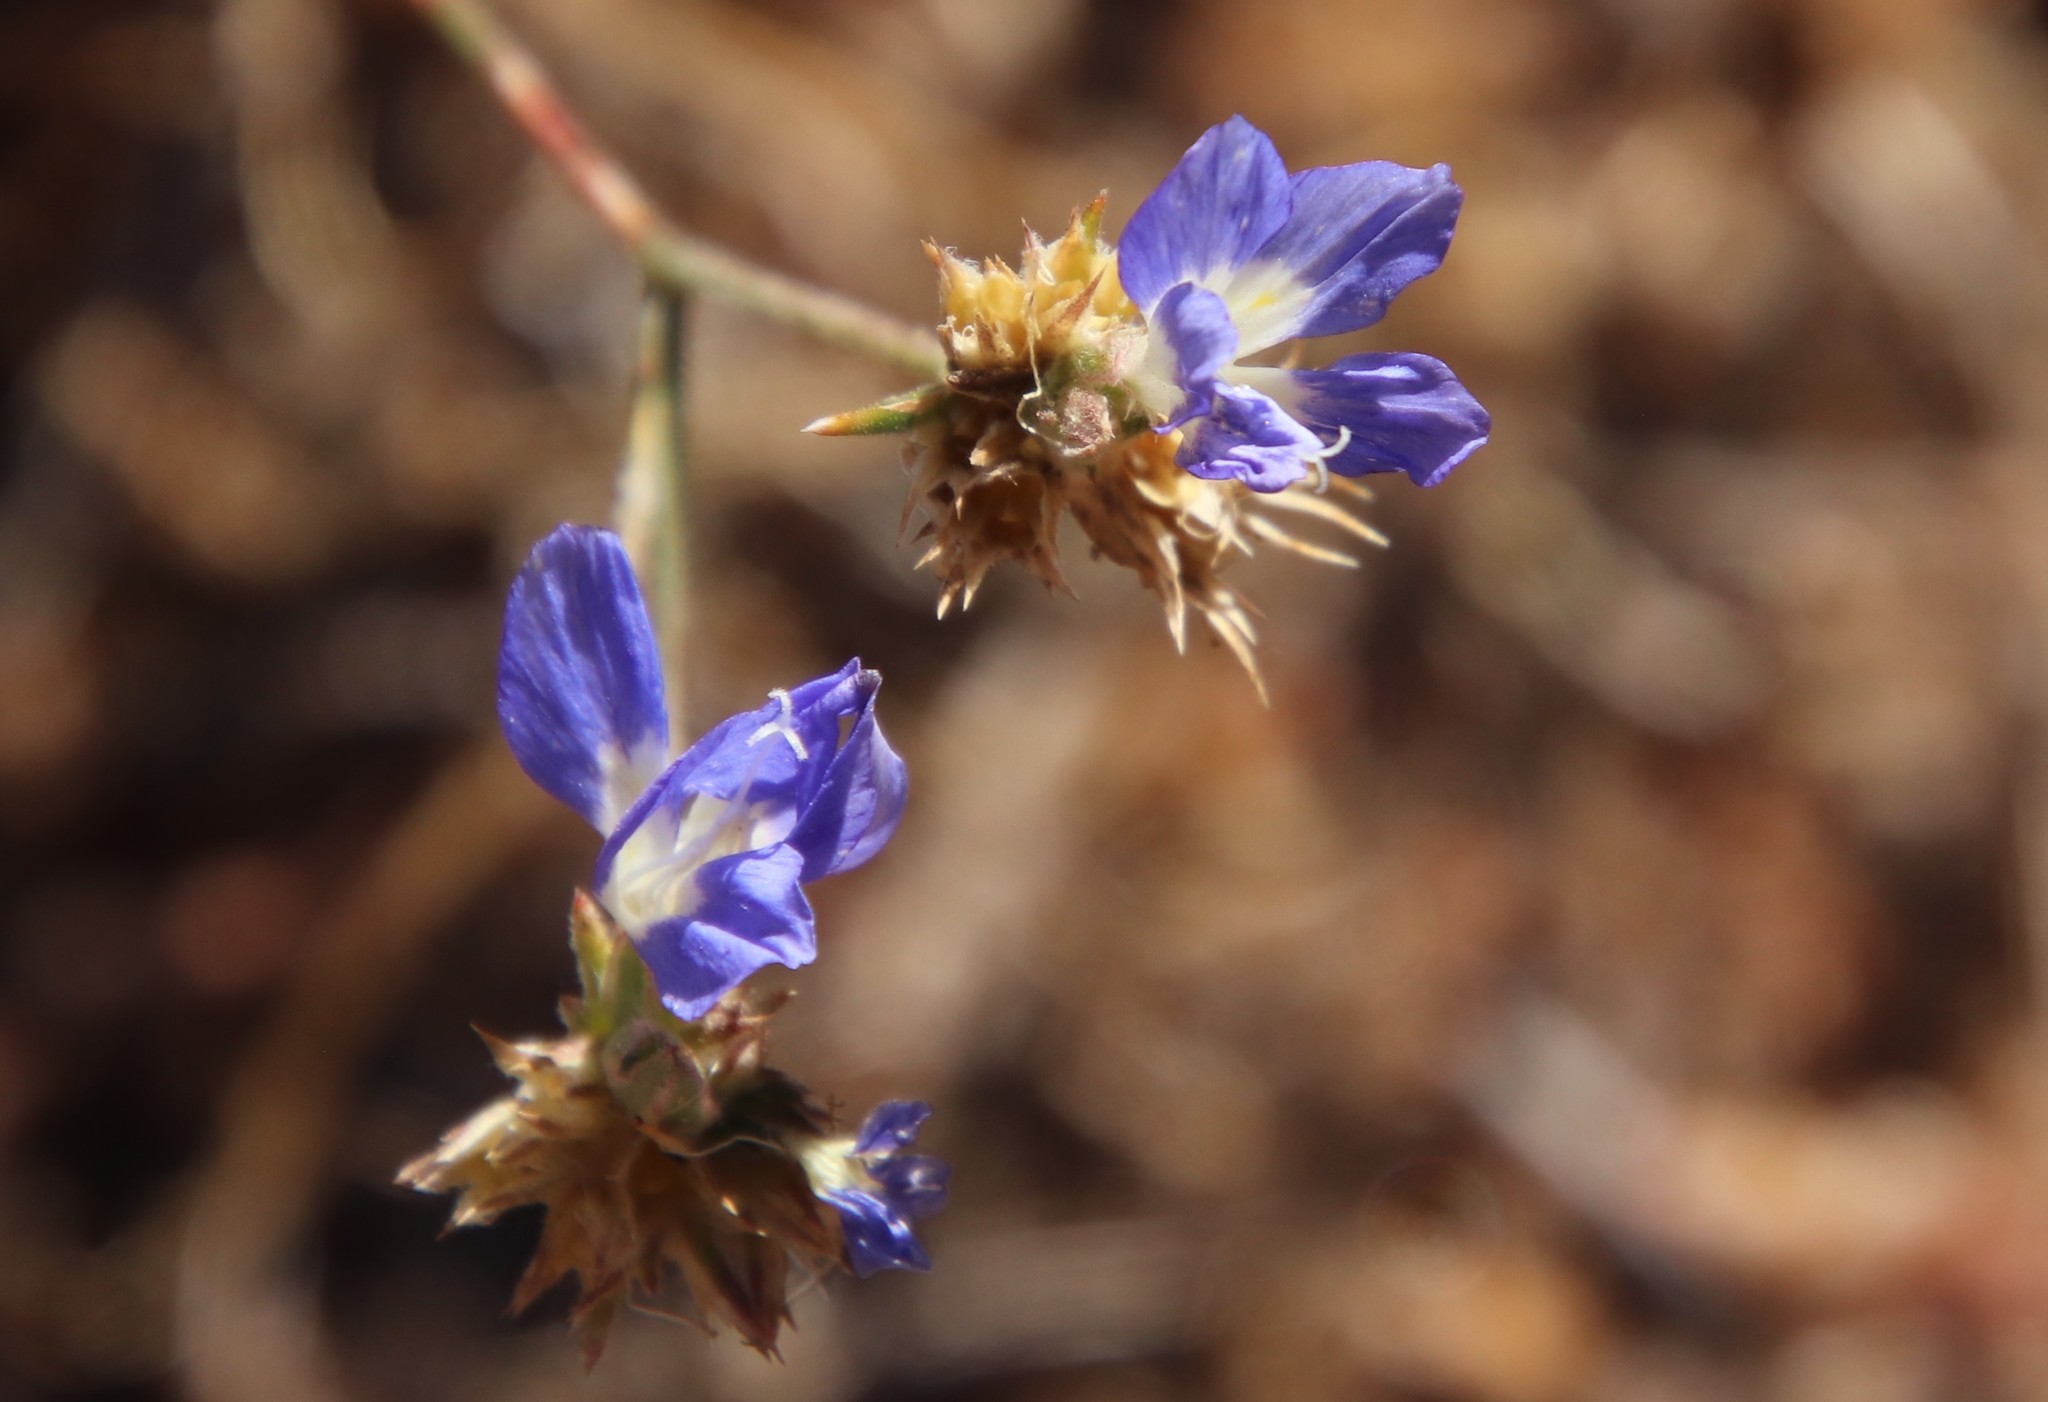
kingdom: Plantae
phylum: Tracheophyta
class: Magnoliopsida
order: Ericales
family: Polemoniaceae
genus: Eriastrum
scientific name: Eriastrum sapphirinum
